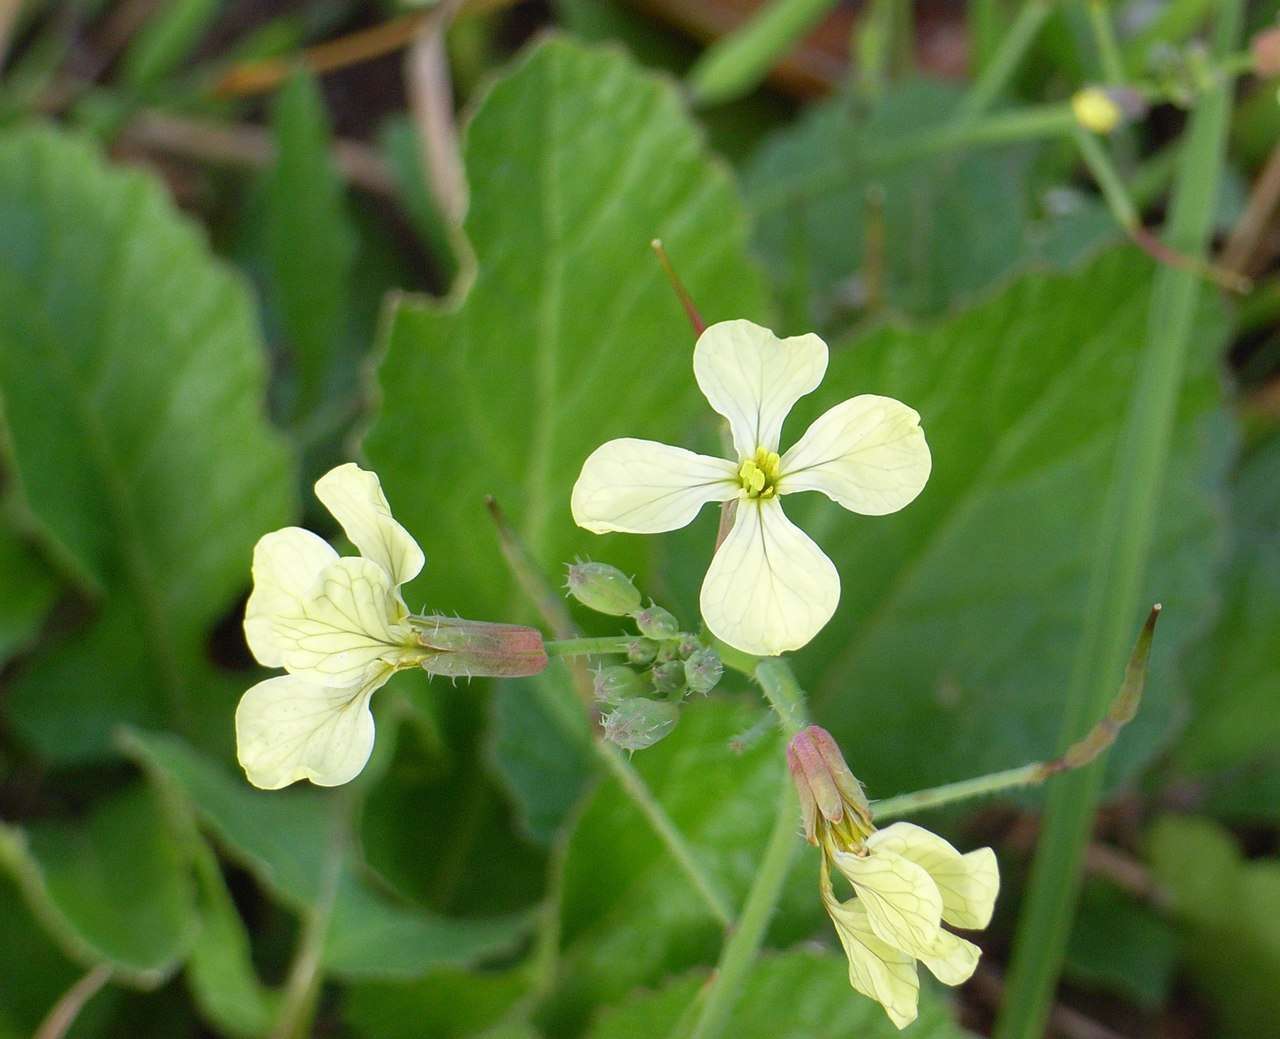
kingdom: Plantae
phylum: Tracheophyta
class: Magnoliopsida
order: Brassicales
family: Brassicaceae
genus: Raphanus
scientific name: Raphanus raphanistrum
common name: Wild radish
